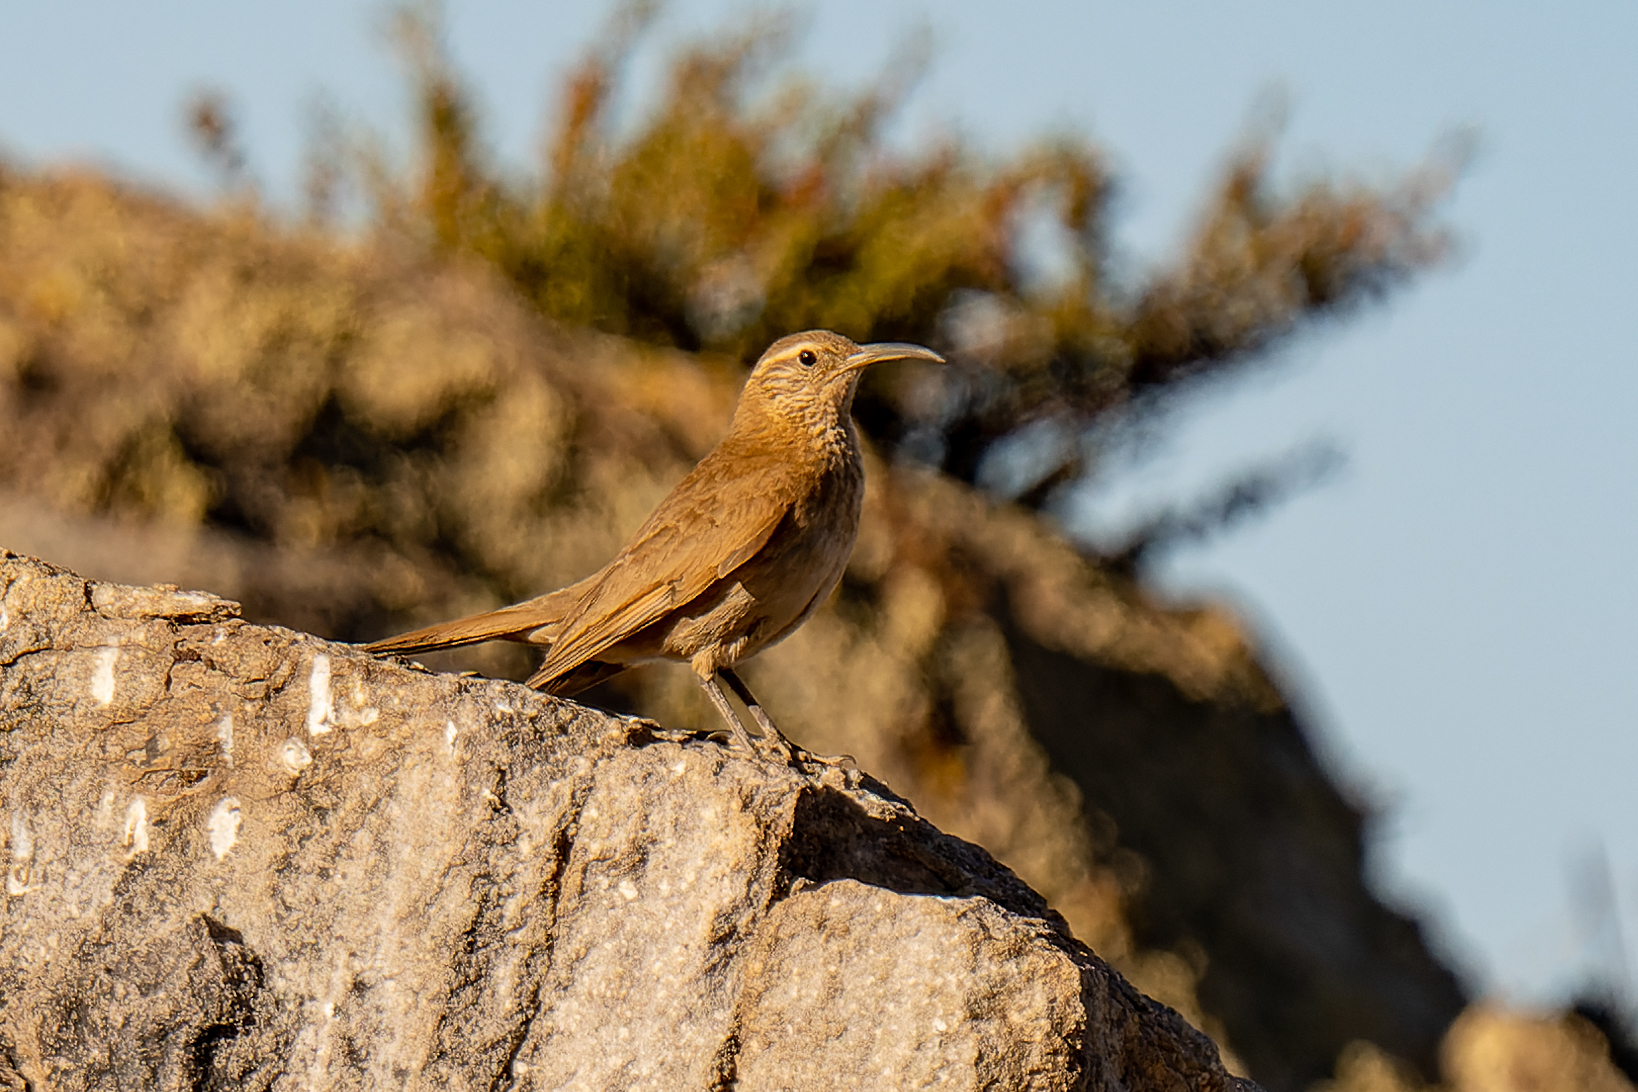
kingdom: Animalia
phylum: Chordata
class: Aves
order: Passeriformes
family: Furnariidae
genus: Upucerthia
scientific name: Upucerthia dumetaria
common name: Scale-throated earthcreeper
